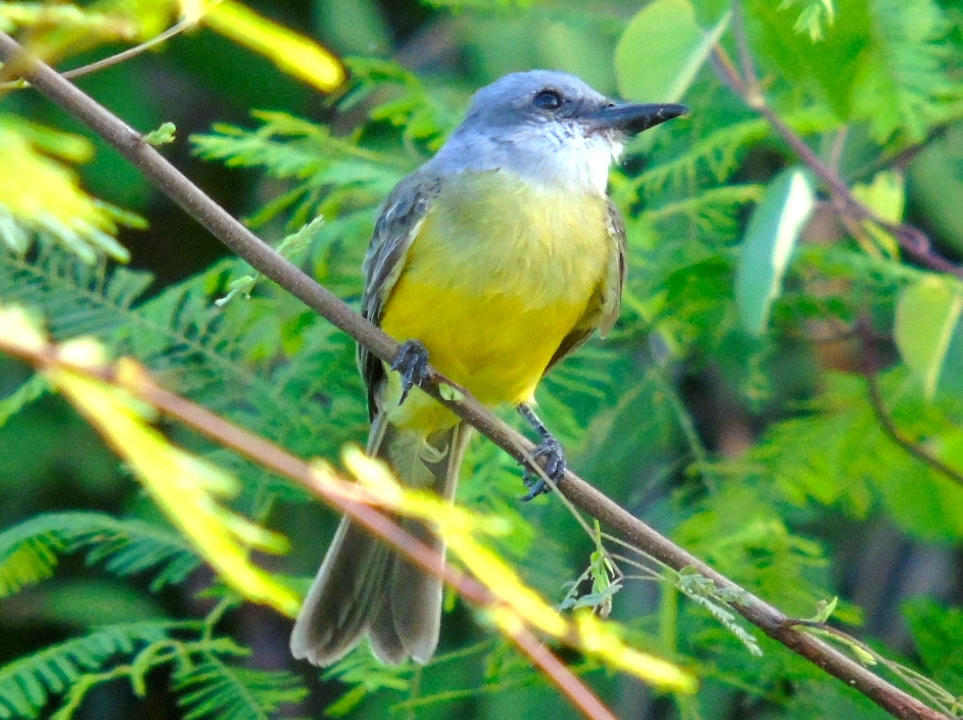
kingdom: Animalia
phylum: Chordata
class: Aves
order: Passeriformes
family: Tyrannidae
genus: Tyrannus
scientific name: Tyrannus melancholicus
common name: Tropical kingbird
